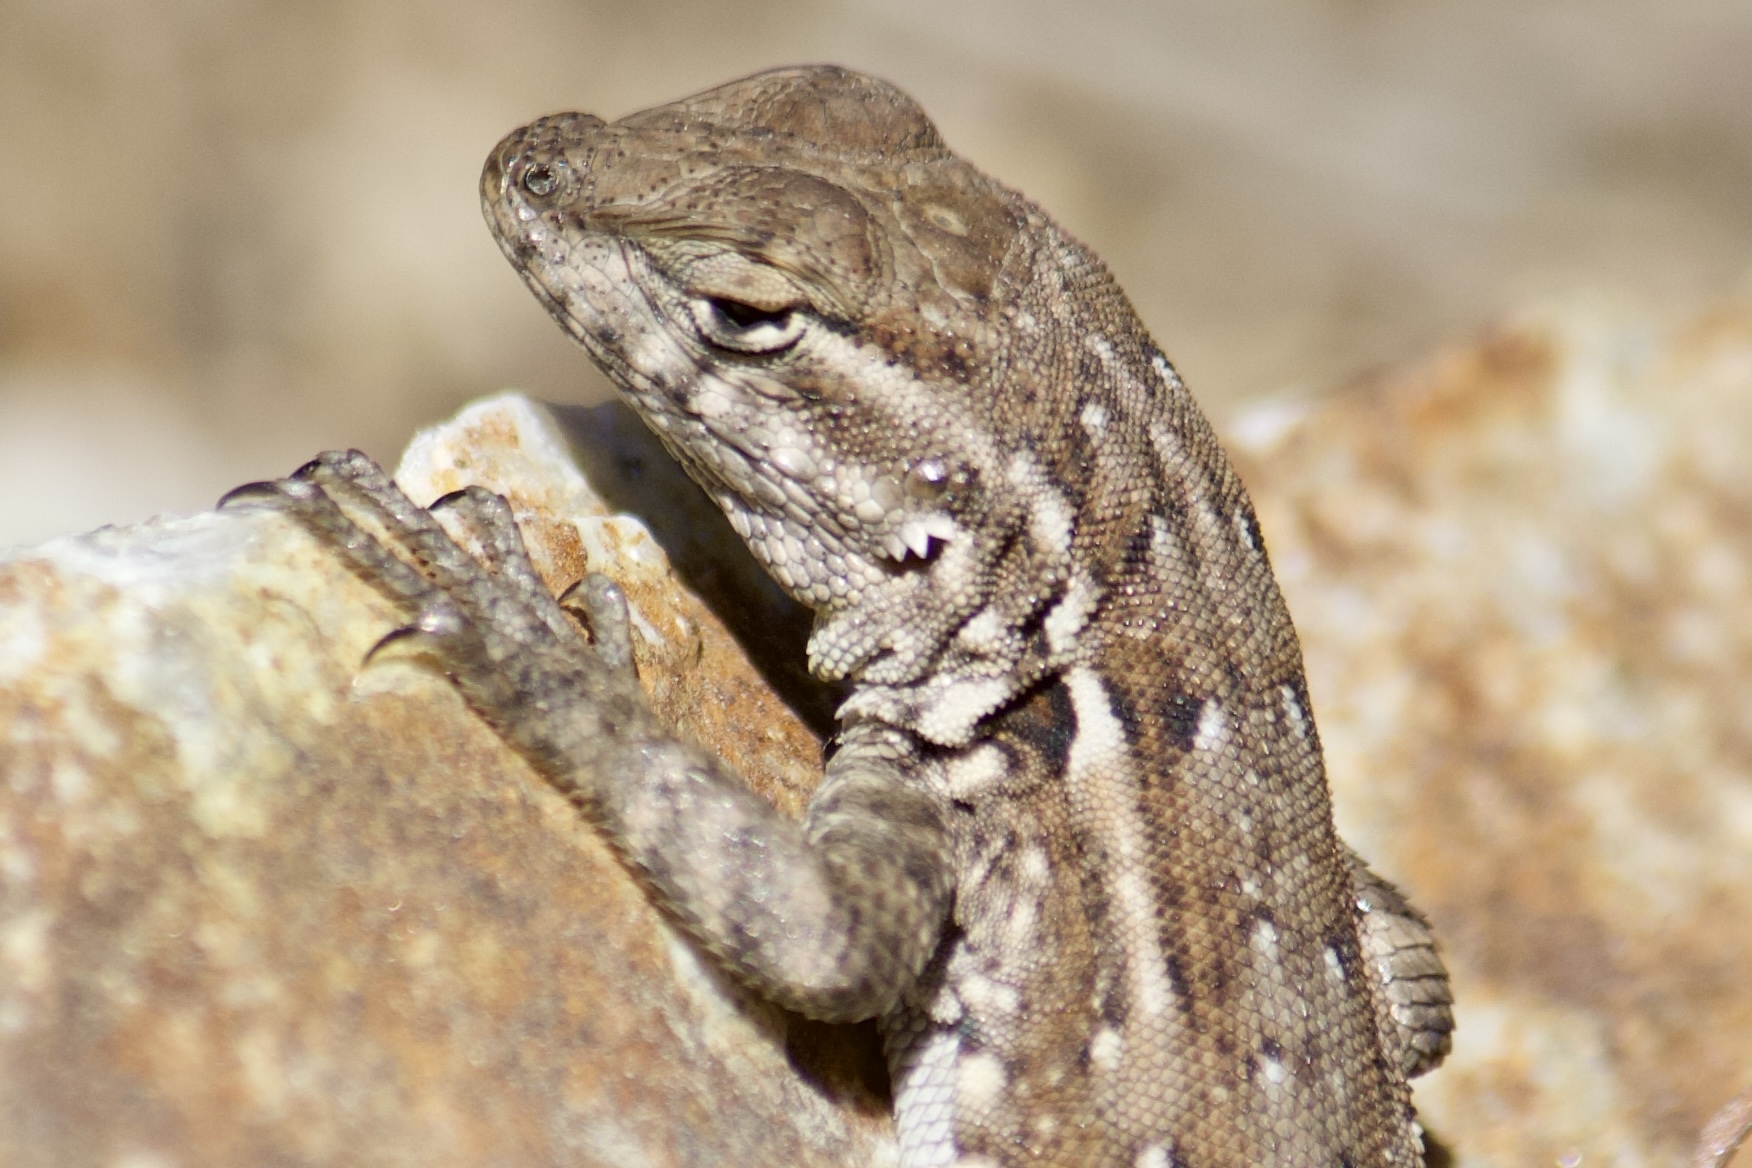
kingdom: Animalia
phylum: Chordata
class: Squamata
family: Phrynosomatidae
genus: Uta
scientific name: Uta stansburiana
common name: Side-blotched lizard
